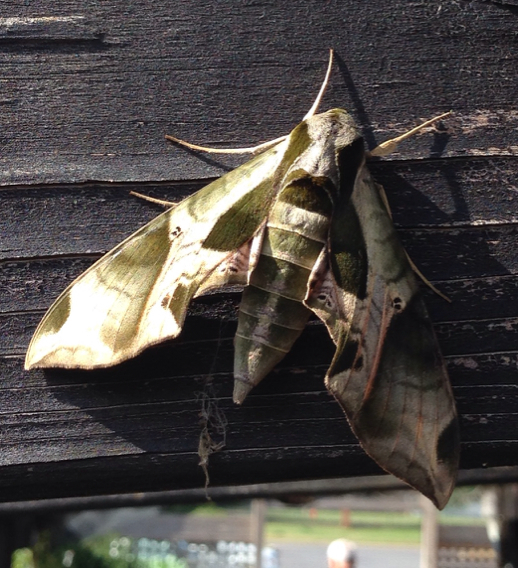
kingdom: Animalia
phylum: Arthropoda
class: Insecta
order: Lepidoptera
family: Sphingidae
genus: Eumorpha
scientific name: Eumorpha pandorus
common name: Pandora sphinx
